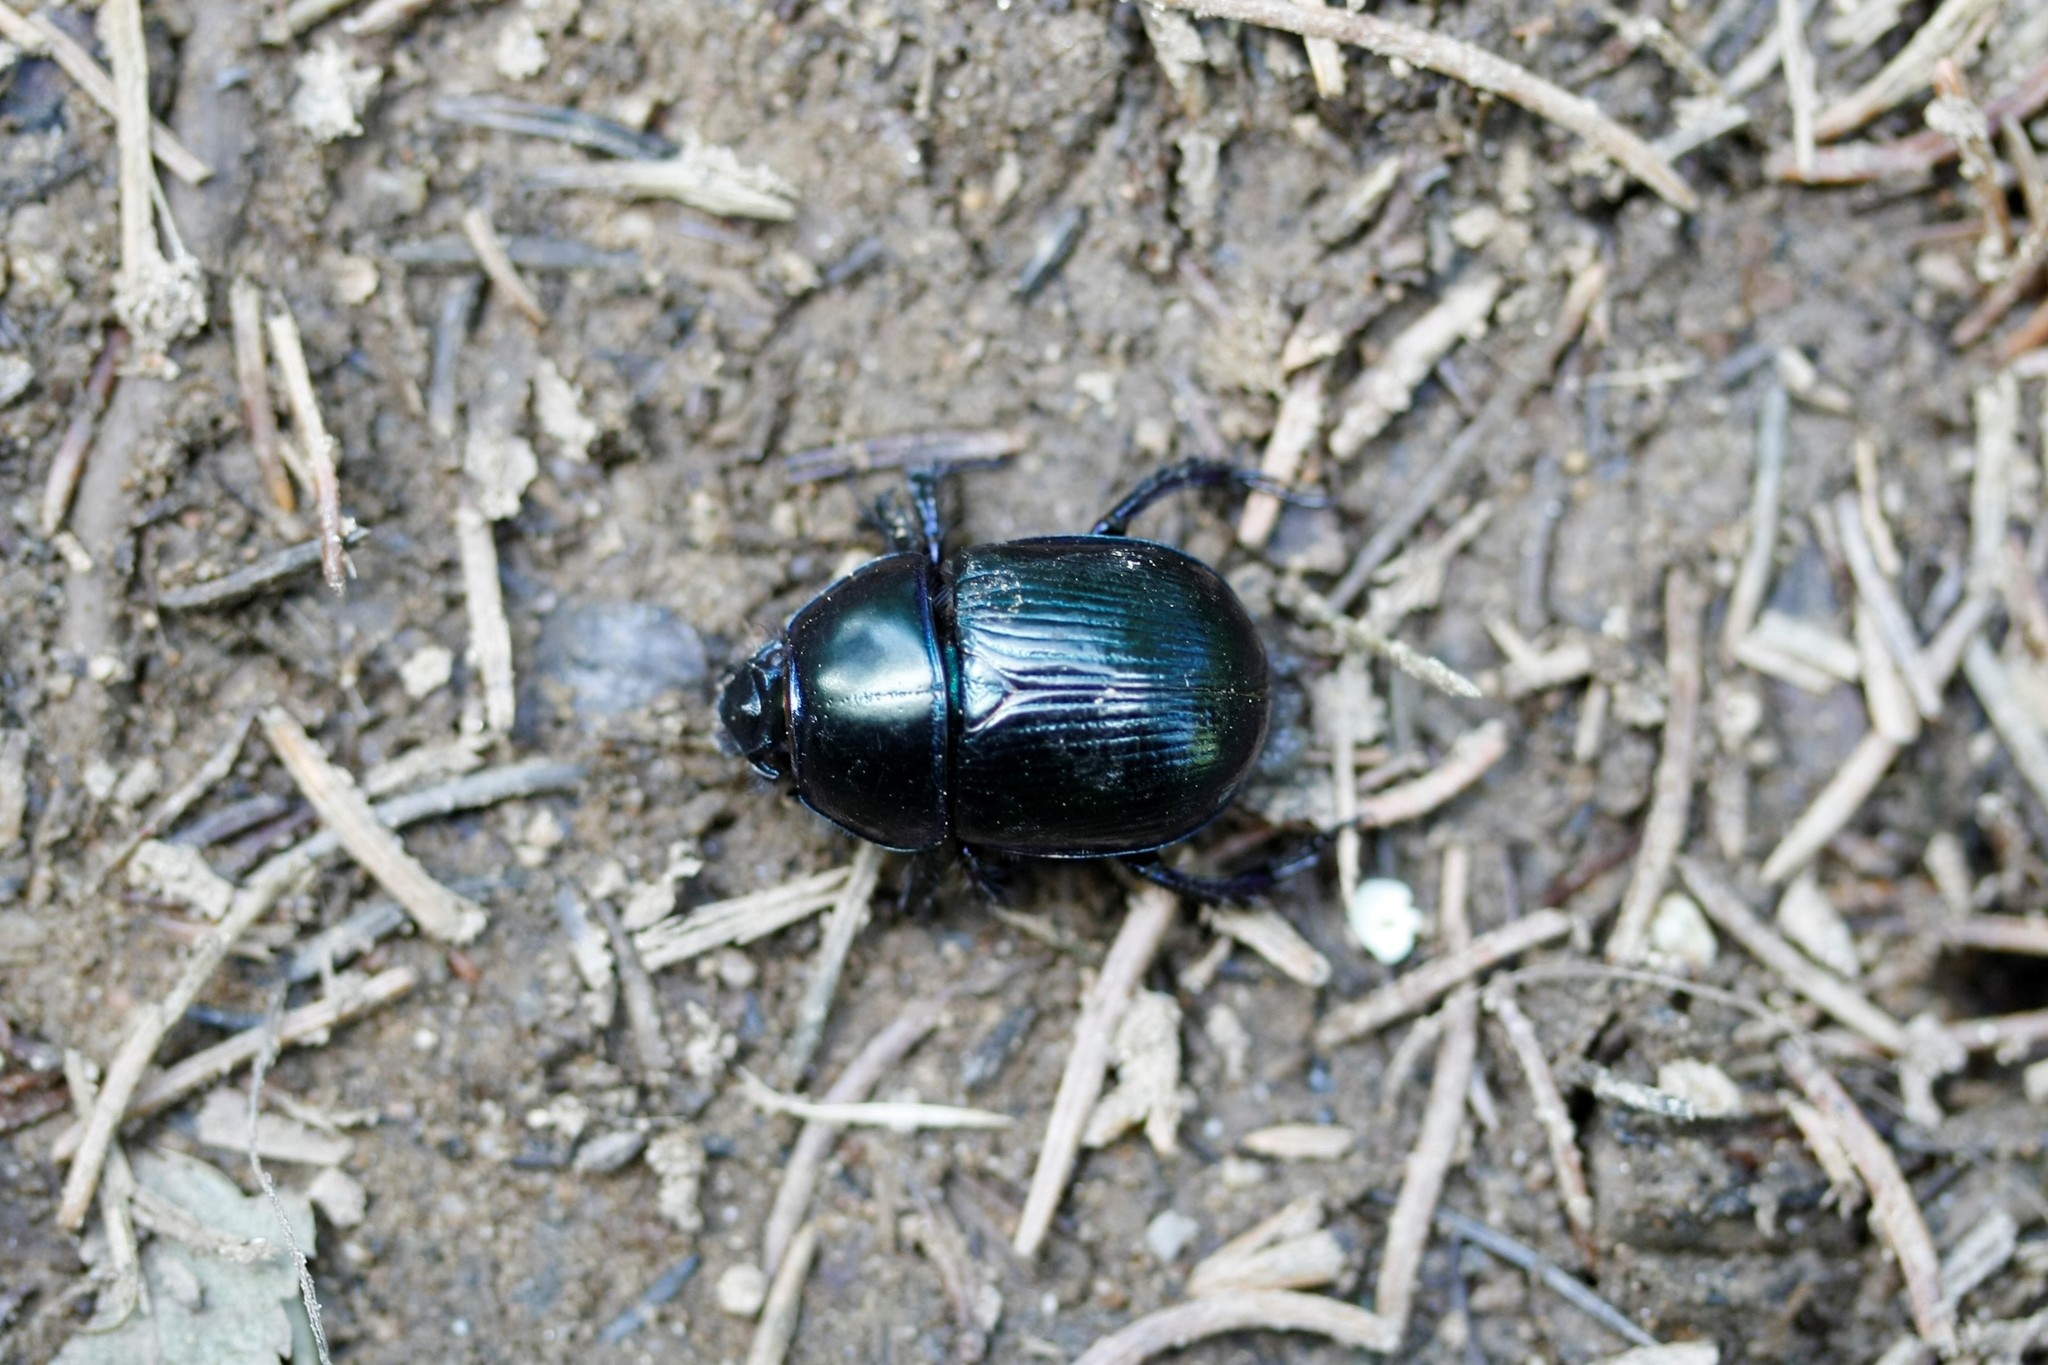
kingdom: Animalia
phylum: Arthropoda
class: Insecta
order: Coleoptera
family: Geotrupidae
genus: Anoplotrupes
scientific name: Anoplotrupes stercorosus
